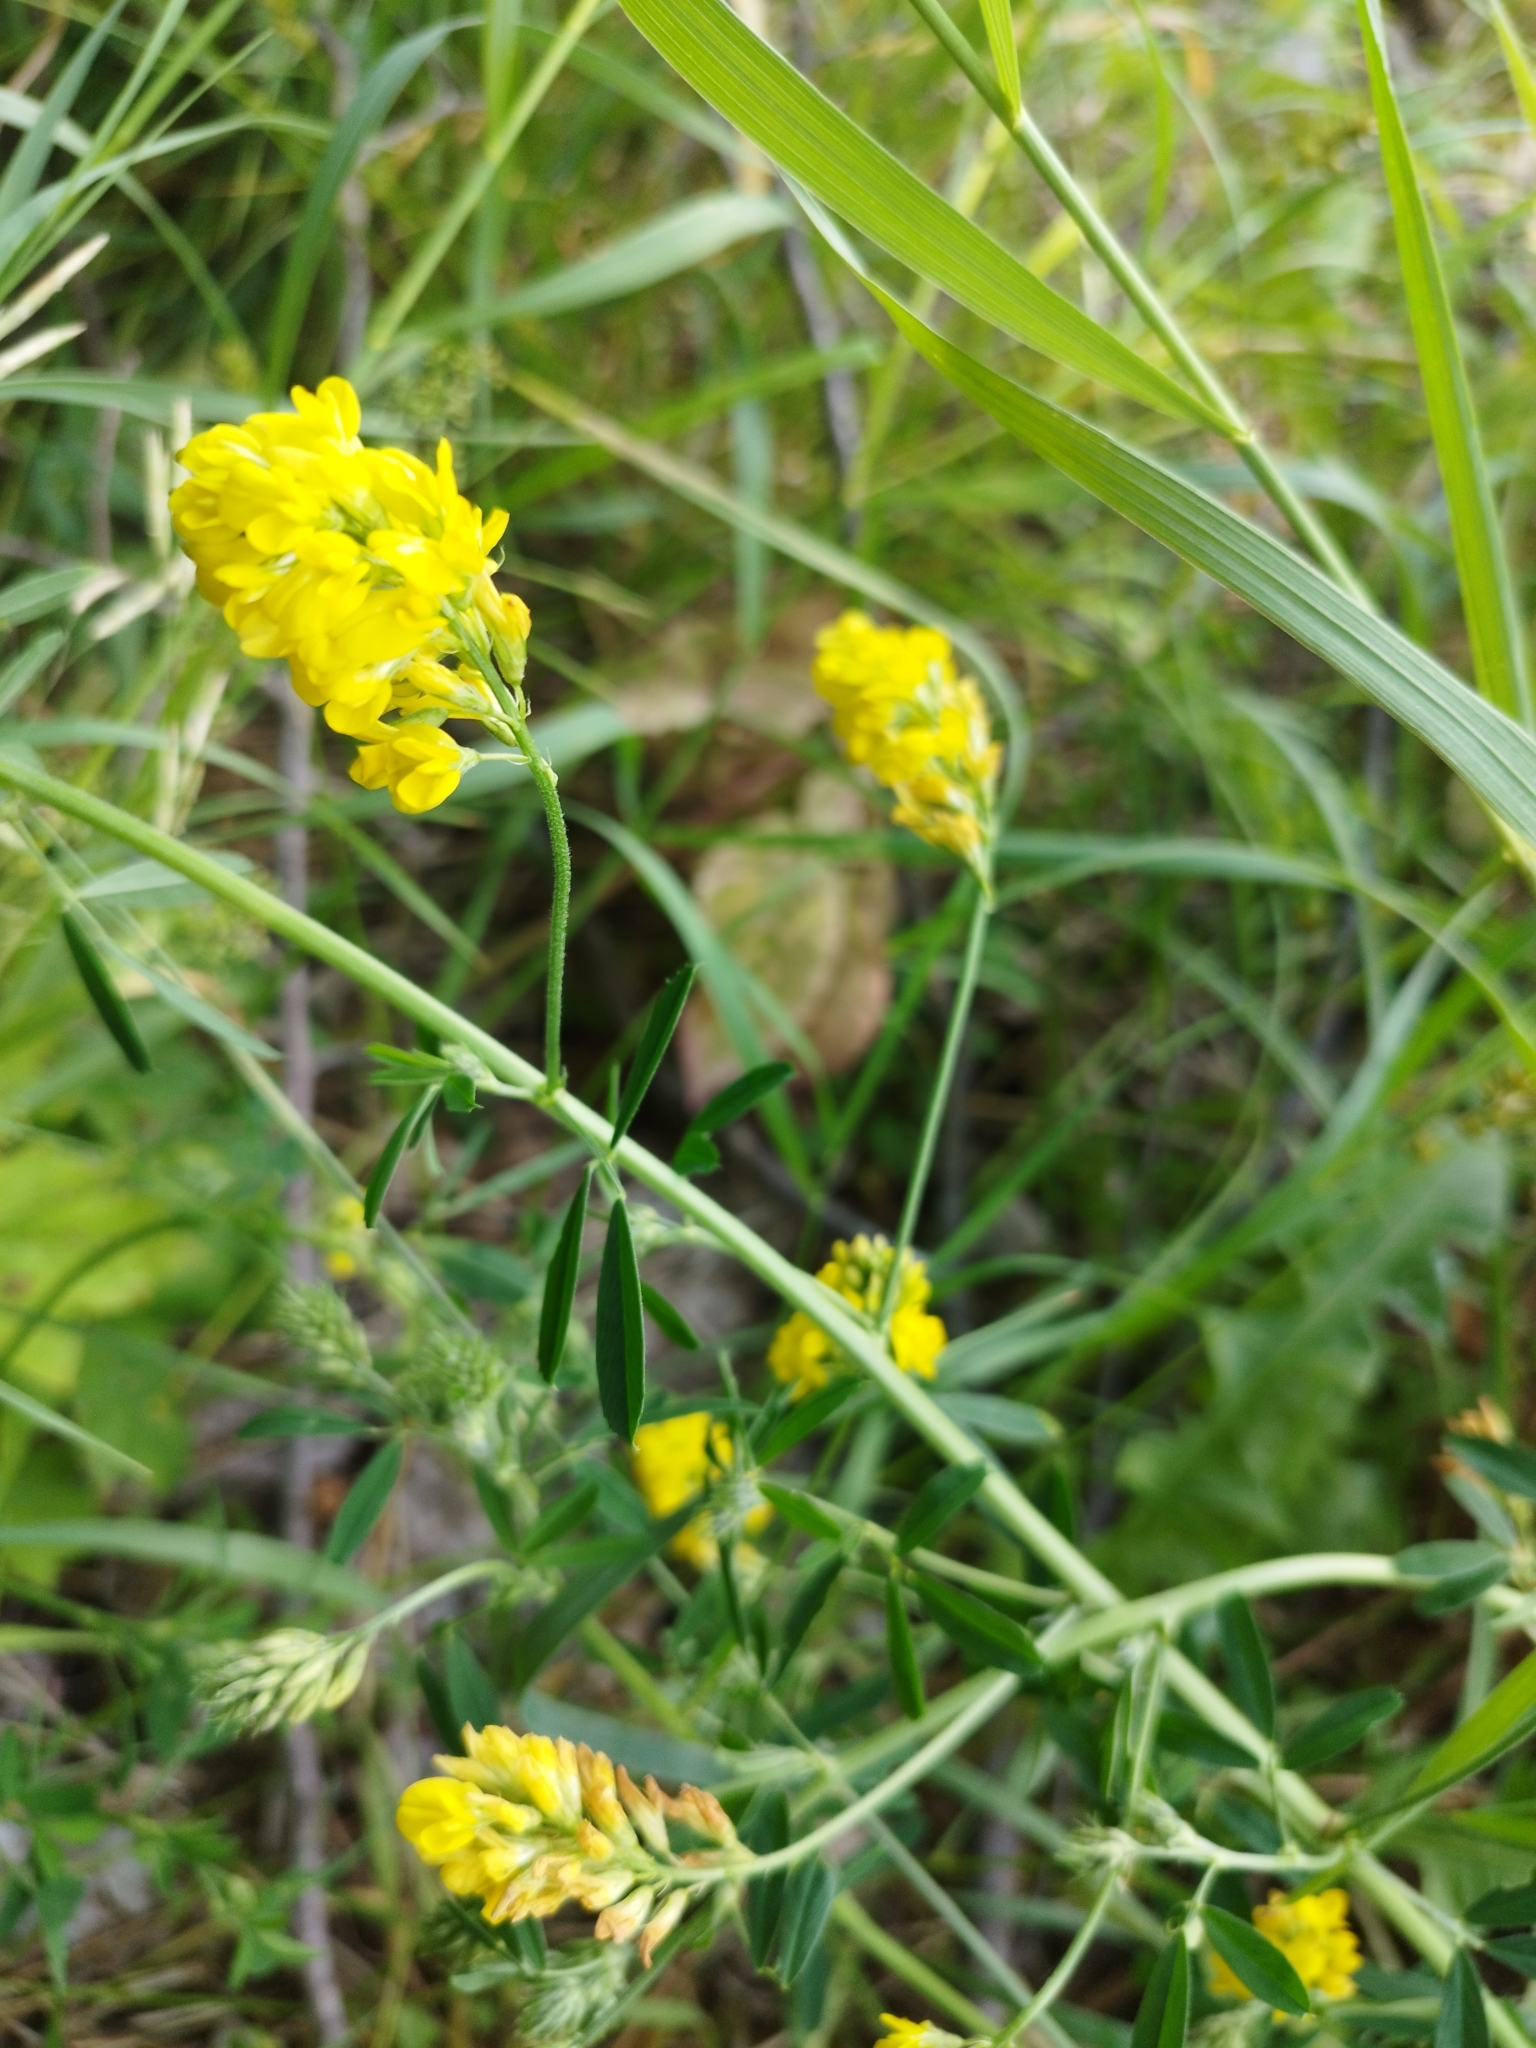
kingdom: Plantae
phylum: Tracheophyta
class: Magnoliopsida
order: Fabales
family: Fabaceae
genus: Medicago
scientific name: Medicago falcata
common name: Sickle medick
